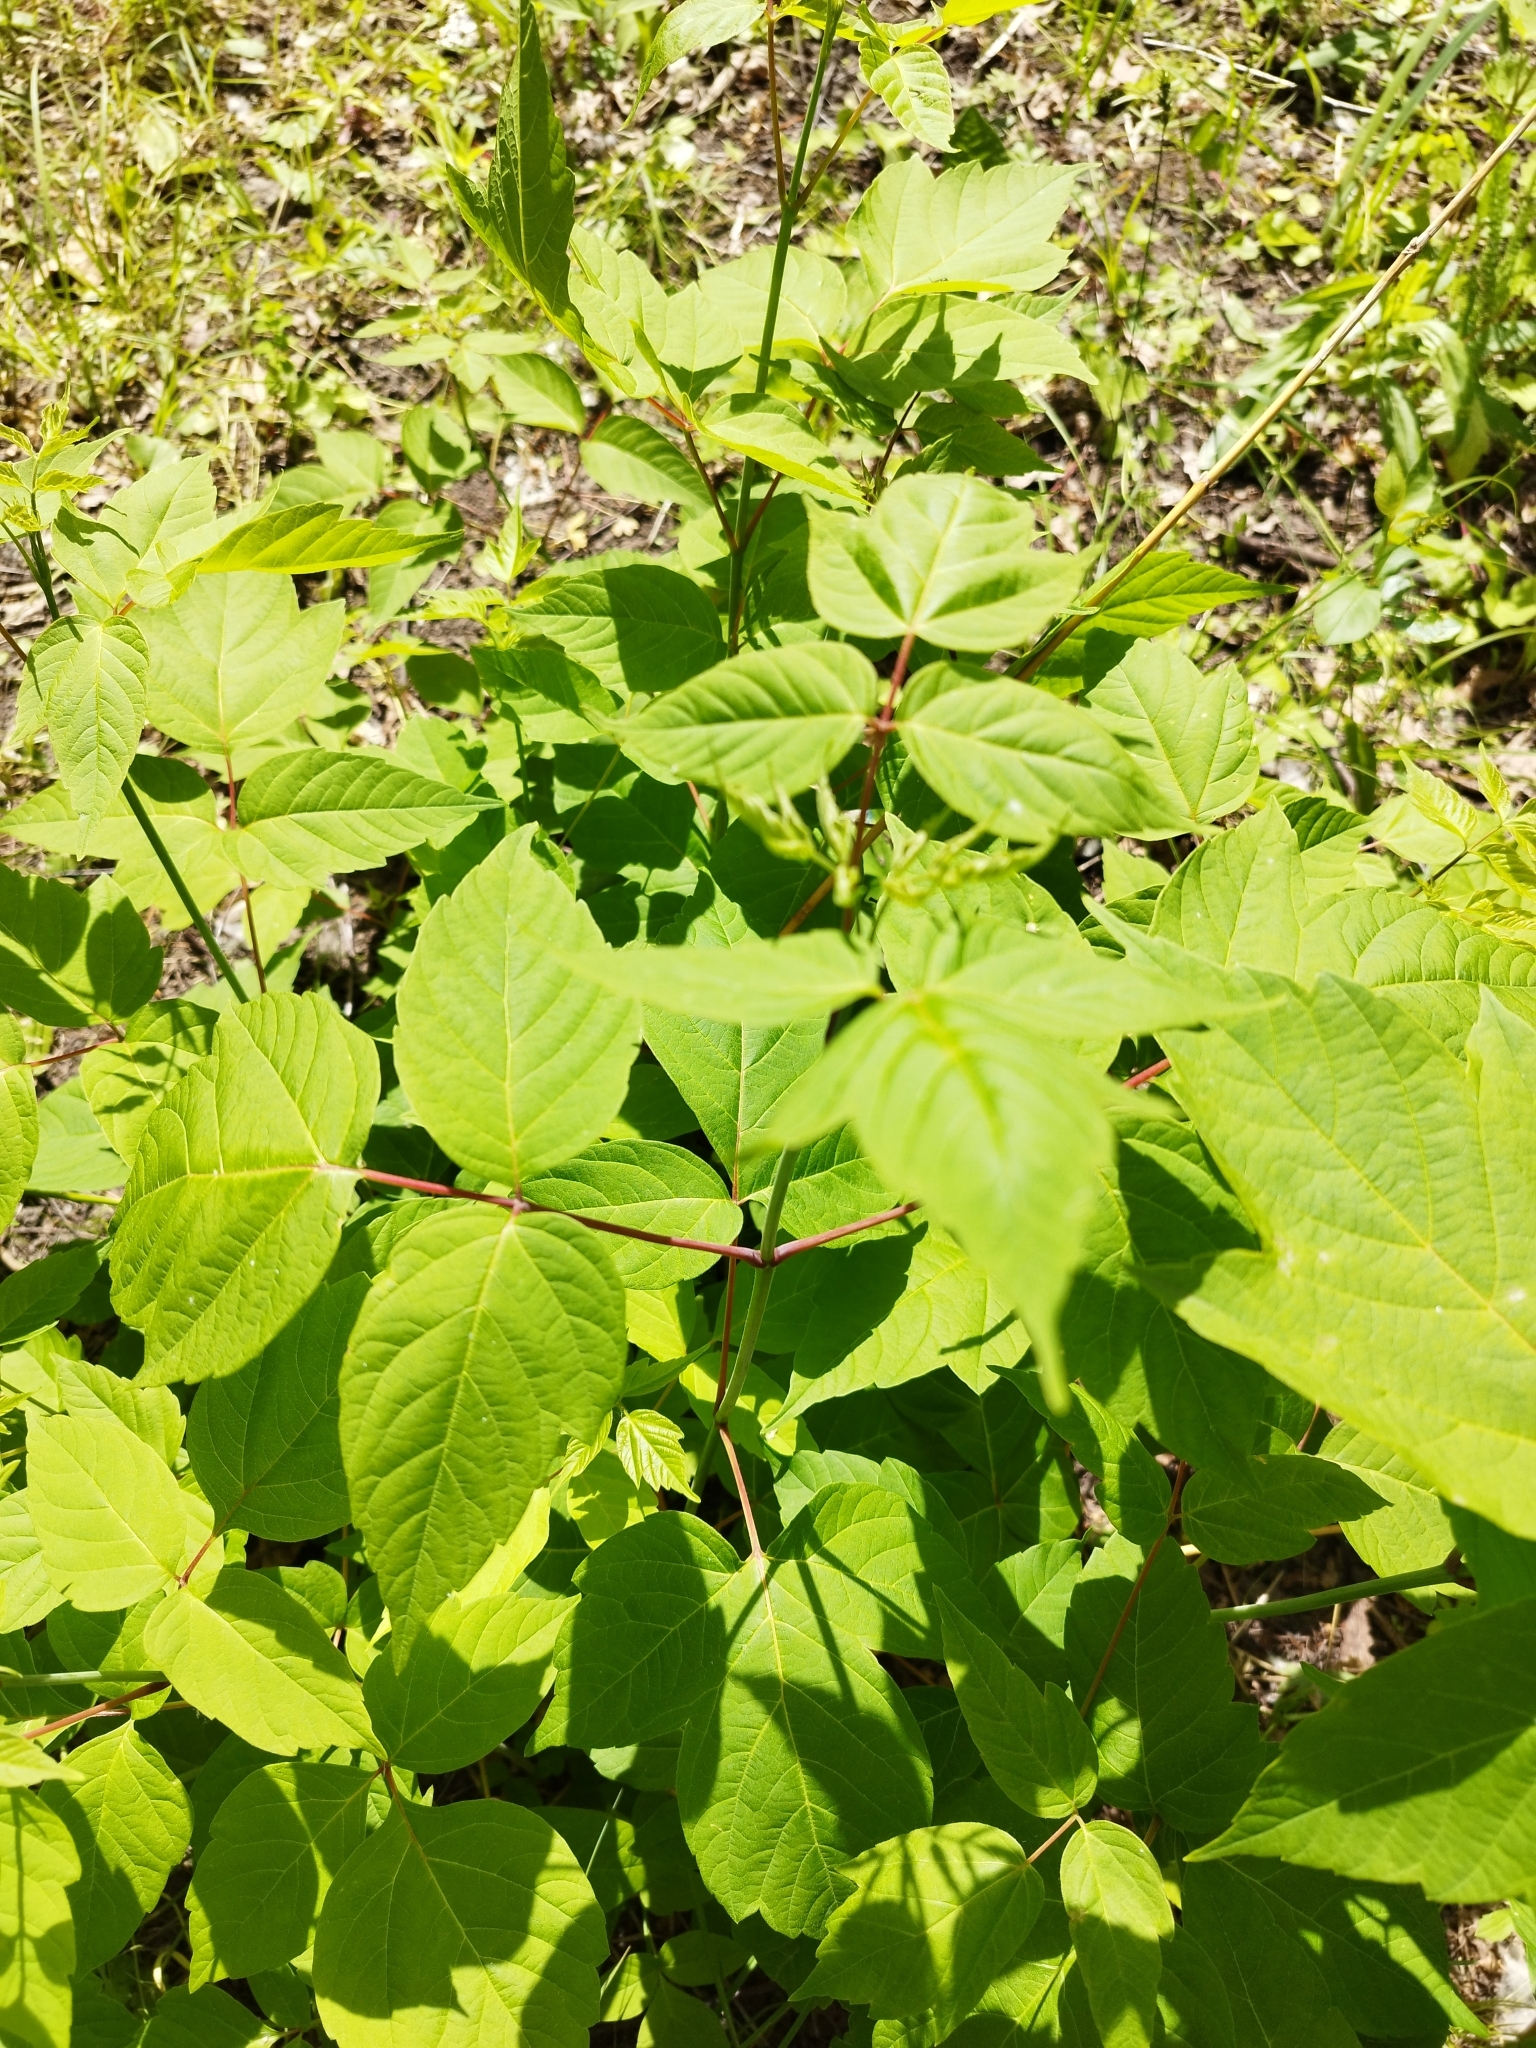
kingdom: Plantae
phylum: Tracheophyta
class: Magnoliopsida
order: Sapindales
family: Sapindaceae
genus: Acer
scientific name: Acer negundo
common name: Ashleaf maple
